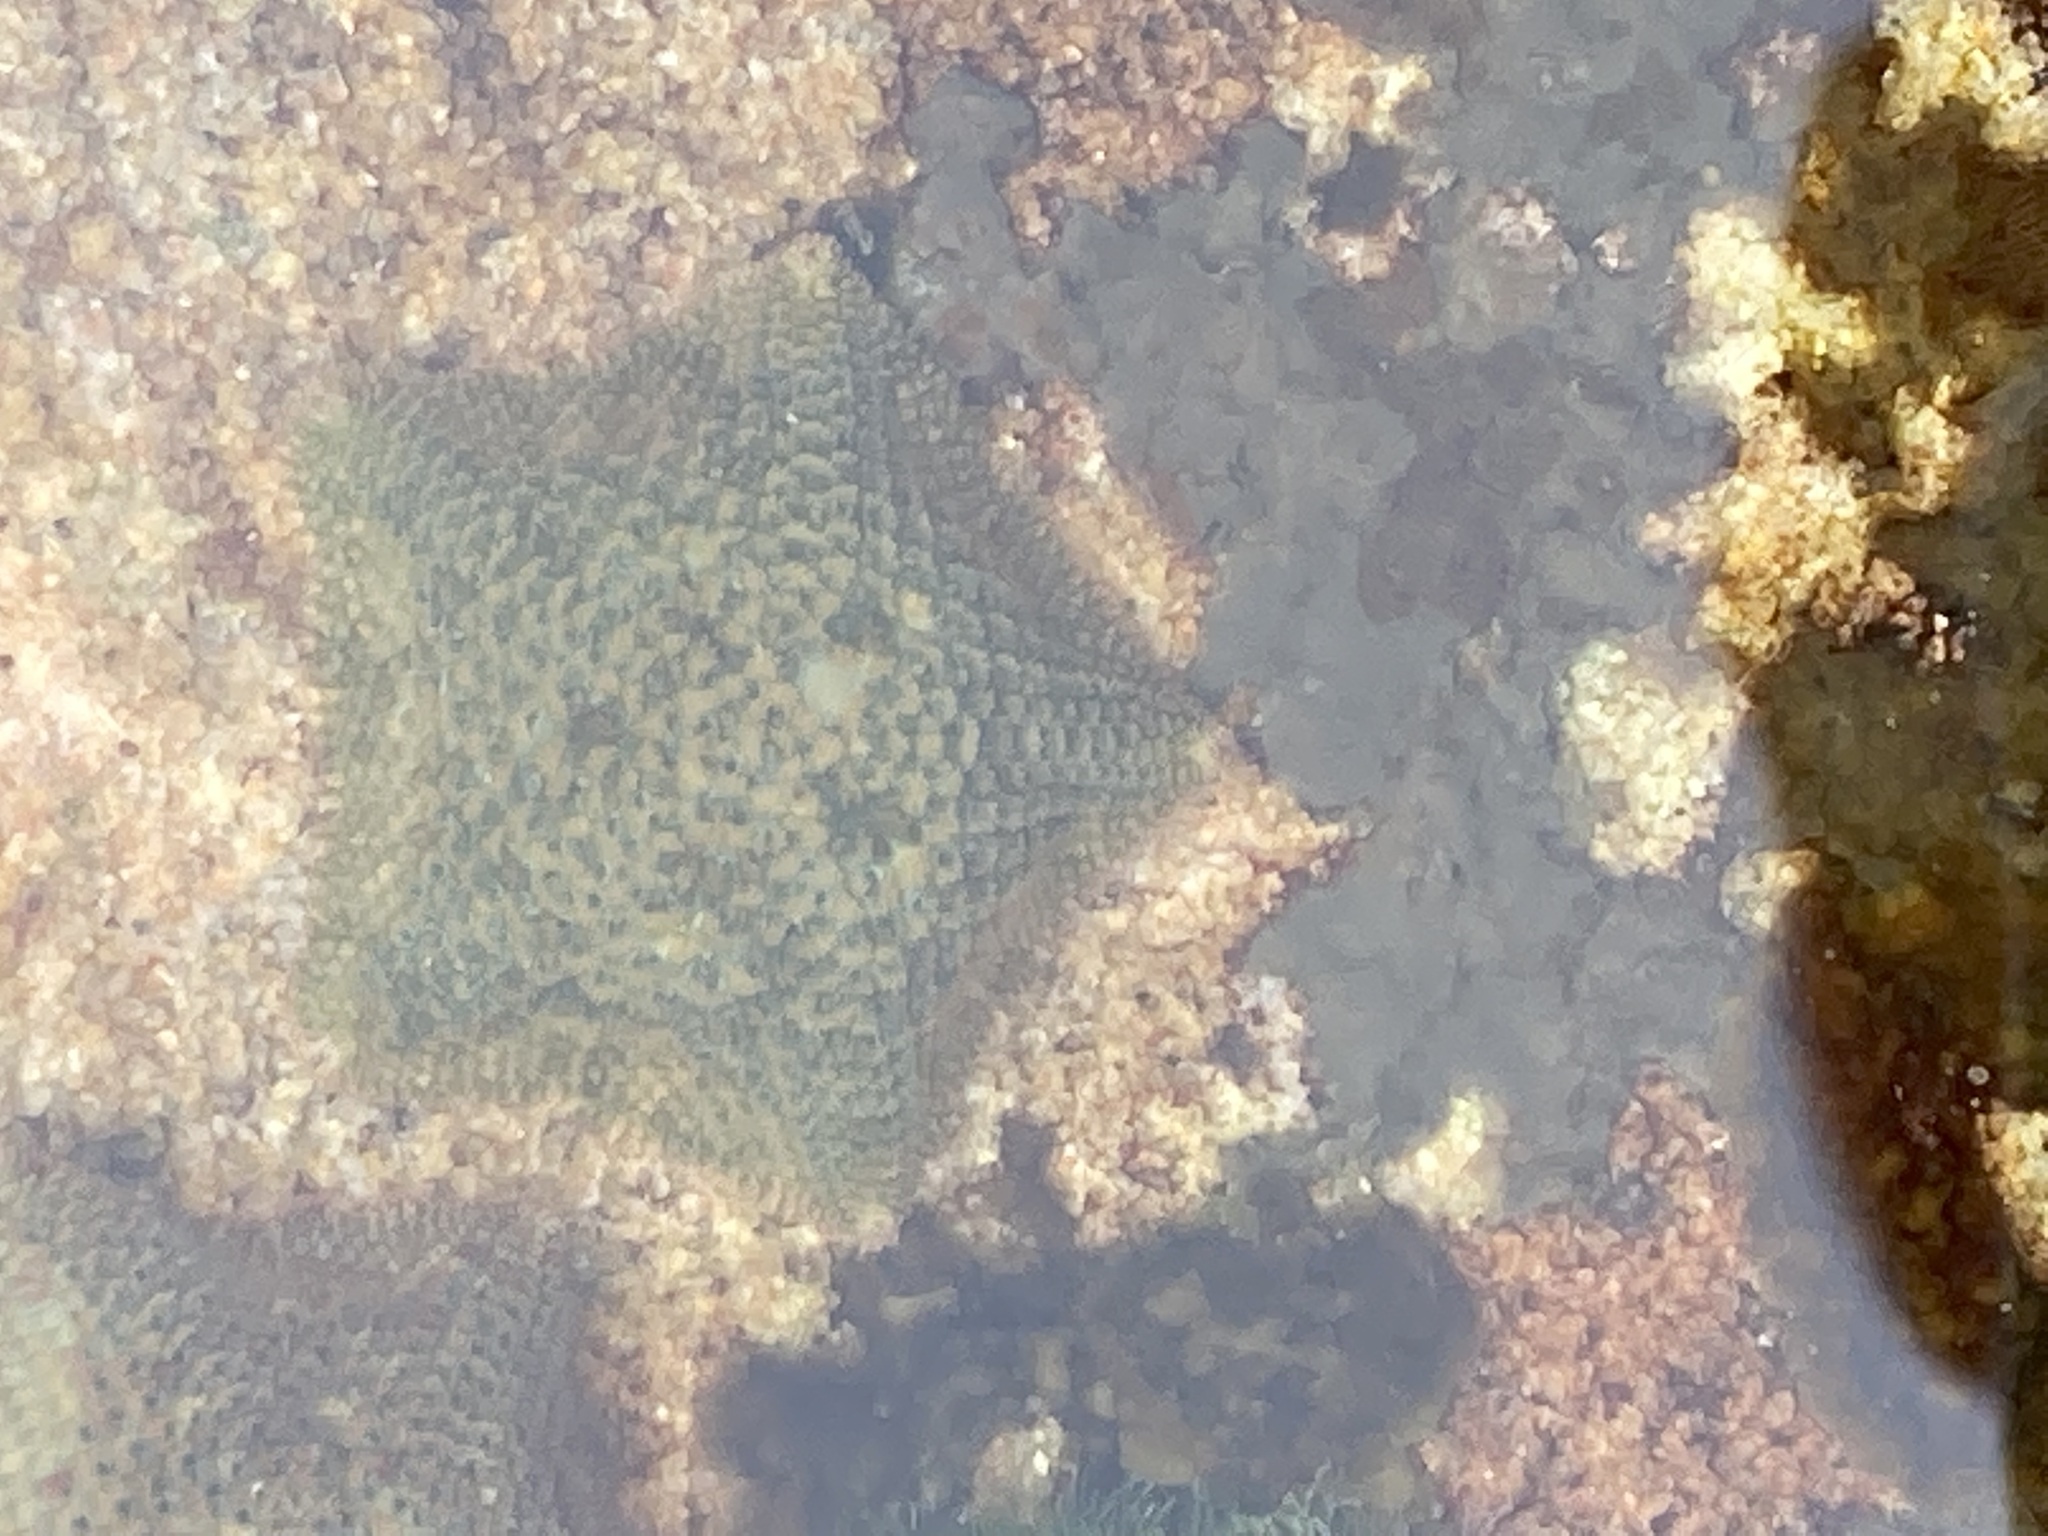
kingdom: Animalia
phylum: Echinodermata
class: Asteroidea
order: Valvatida
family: Asterinidae
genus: Parvulastra
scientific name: Parvulastra exigua
